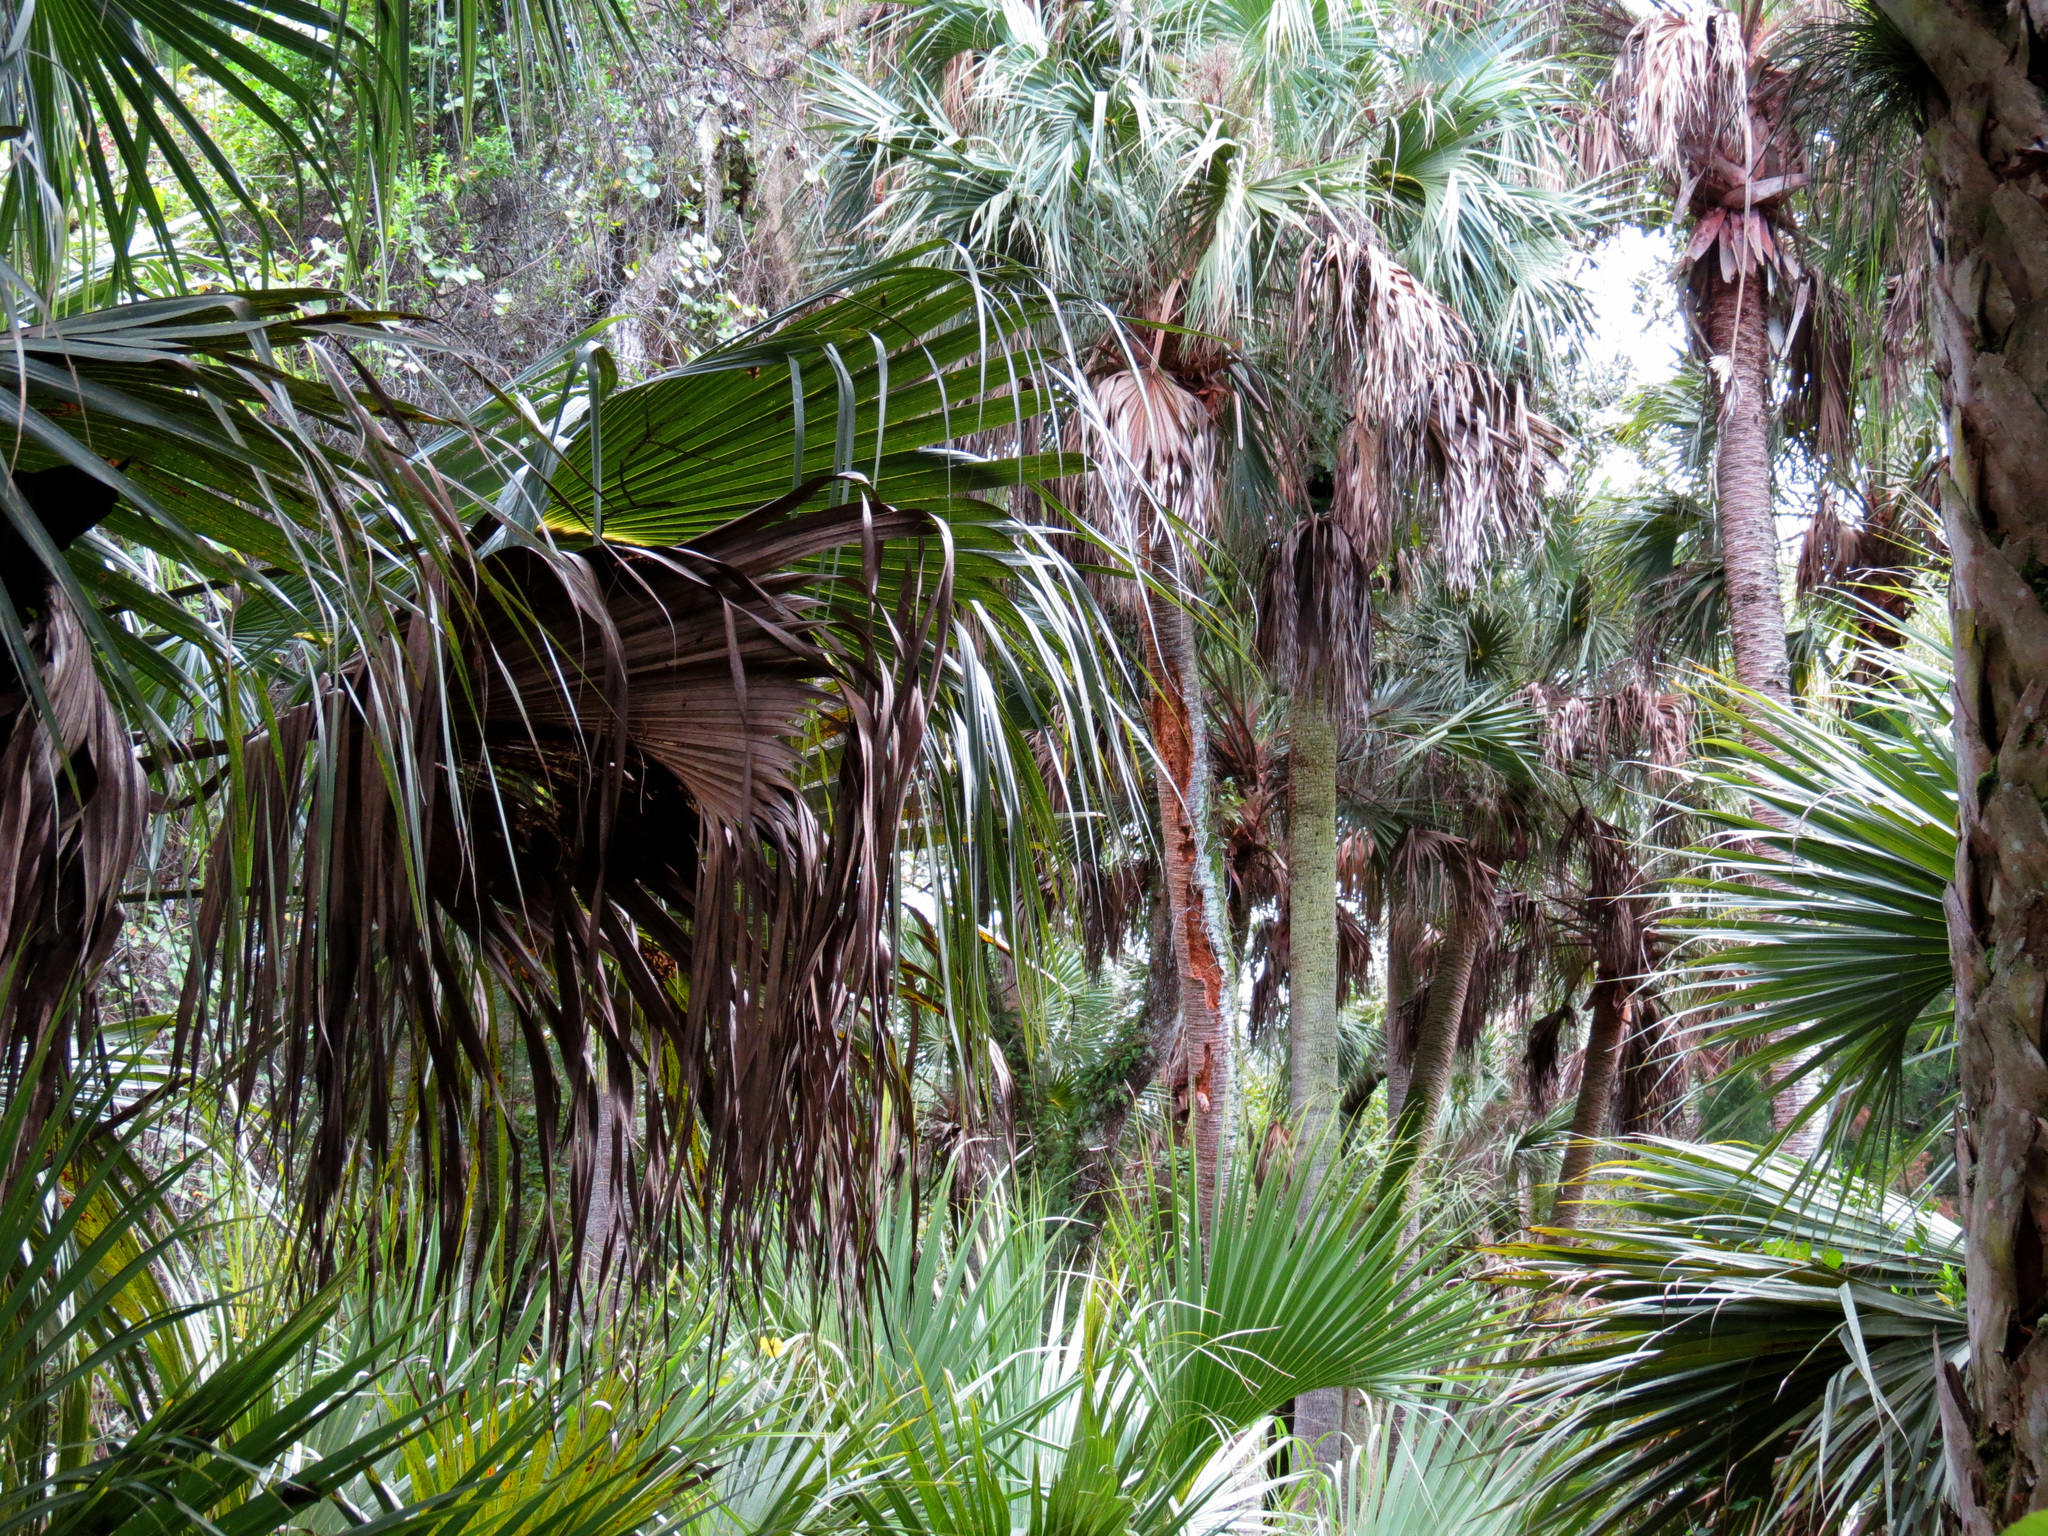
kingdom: Plantae
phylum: Tracheophyta
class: Liliopsida
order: Arecales
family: Arecaceae
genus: Sabal
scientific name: Sabal palmetto
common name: Blue palmetto
